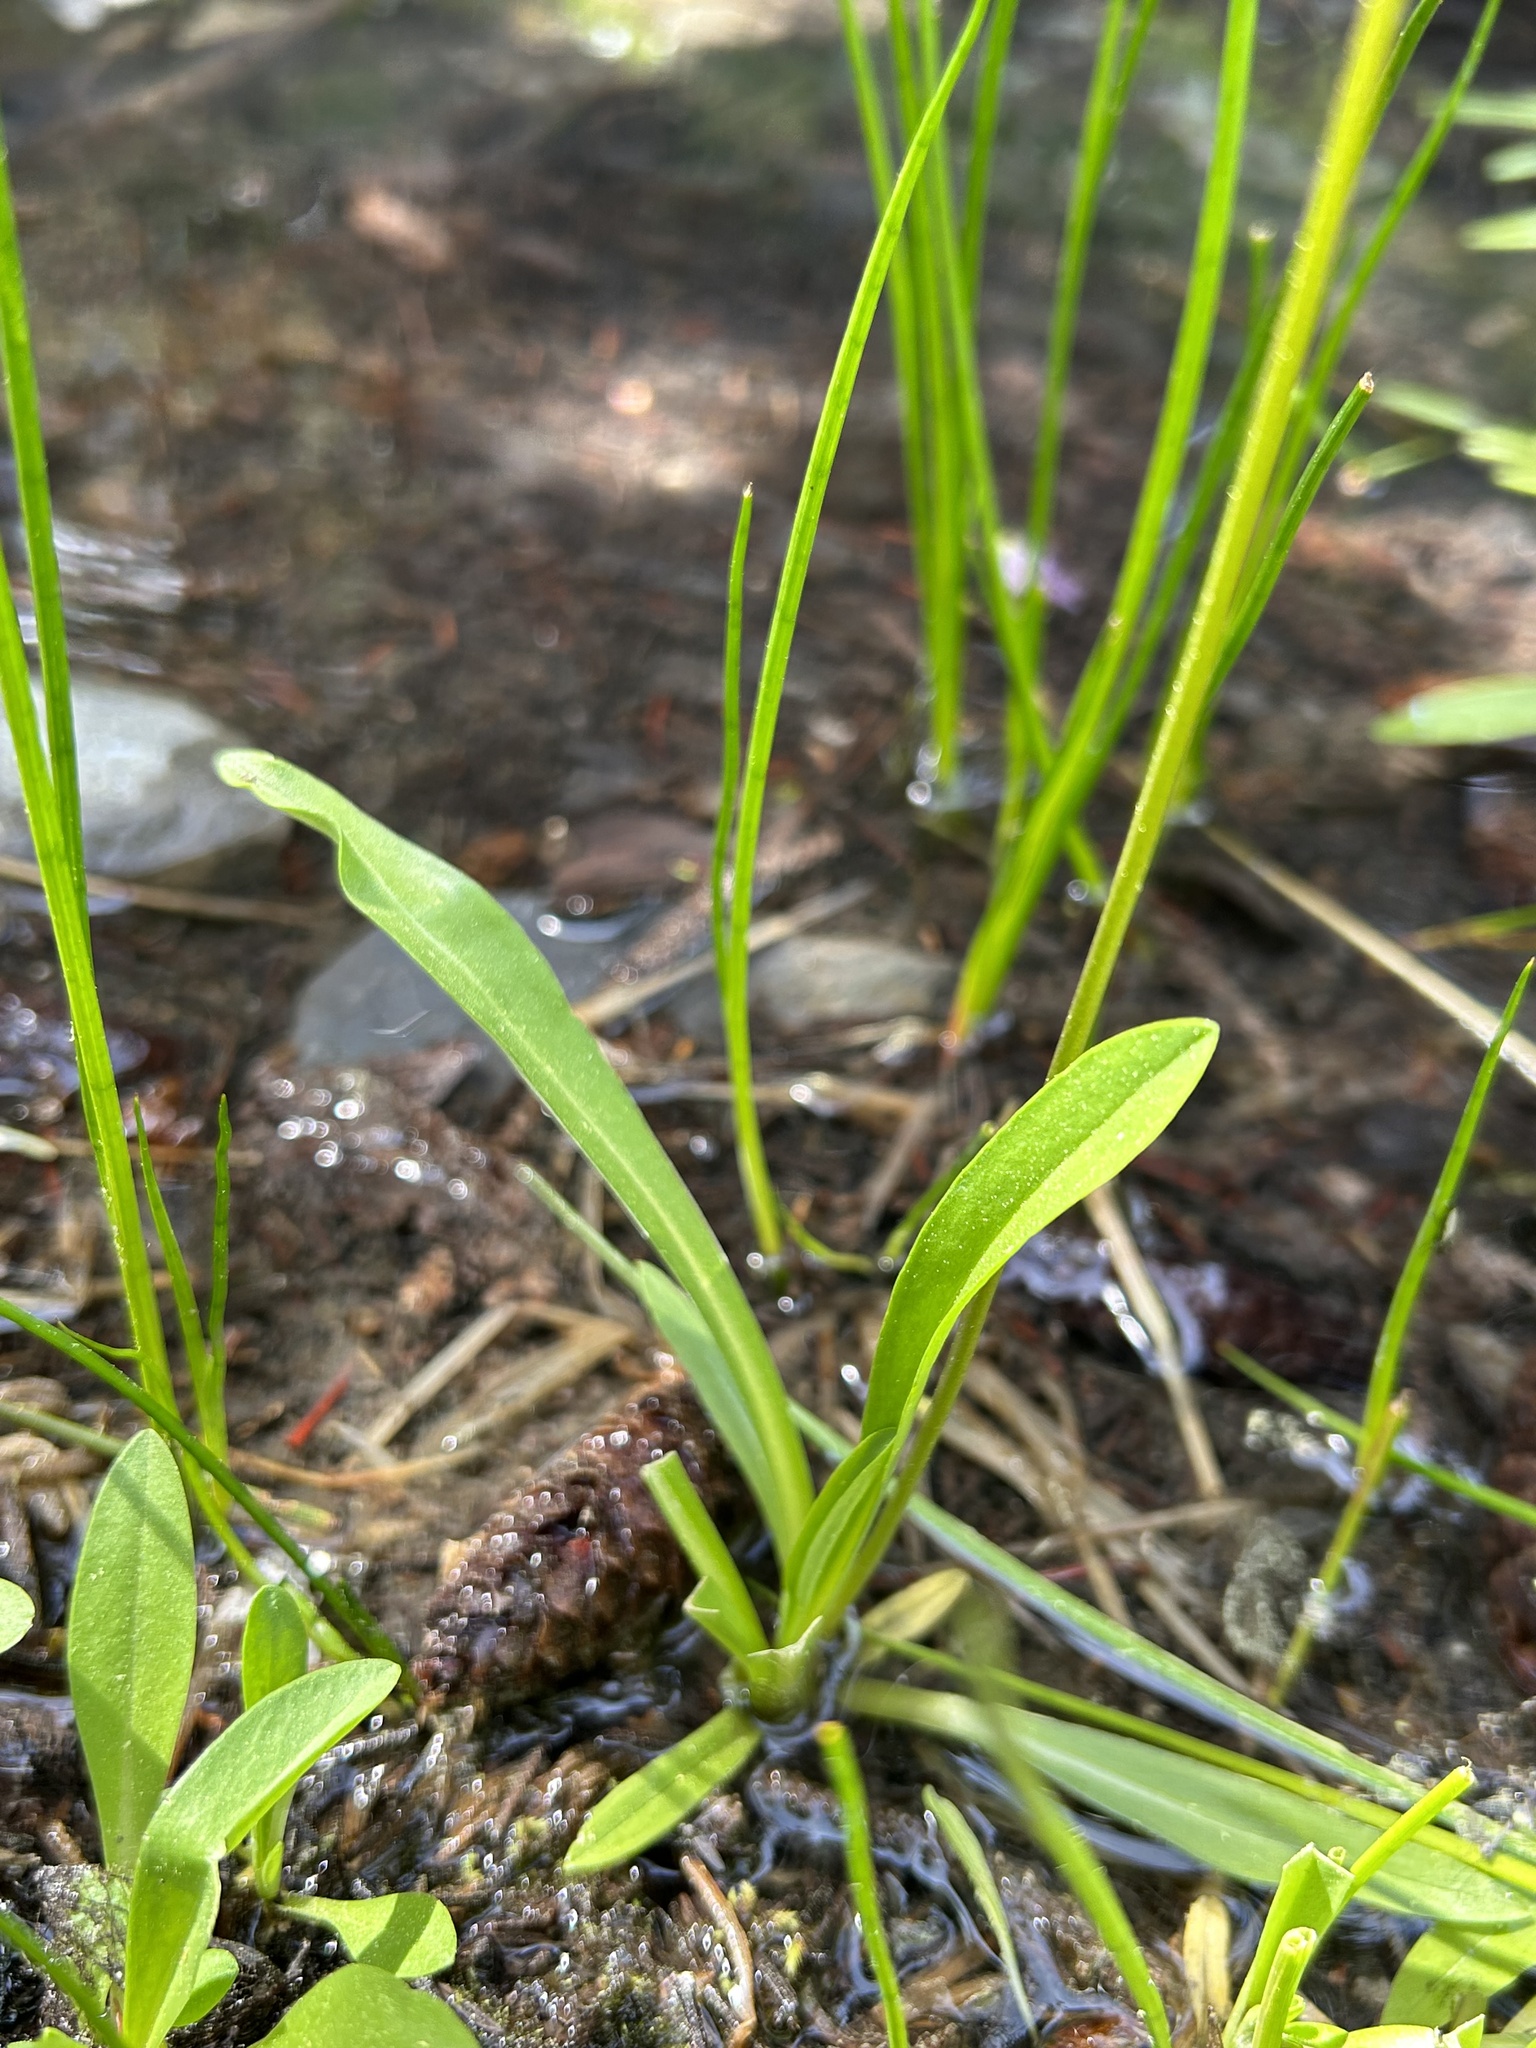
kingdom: Plantae
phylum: Tracheophyta
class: Magnoliopsida
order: Ericales
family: Primulaceae
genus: Dodecatheon
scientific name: Dodecatheon alpinum
